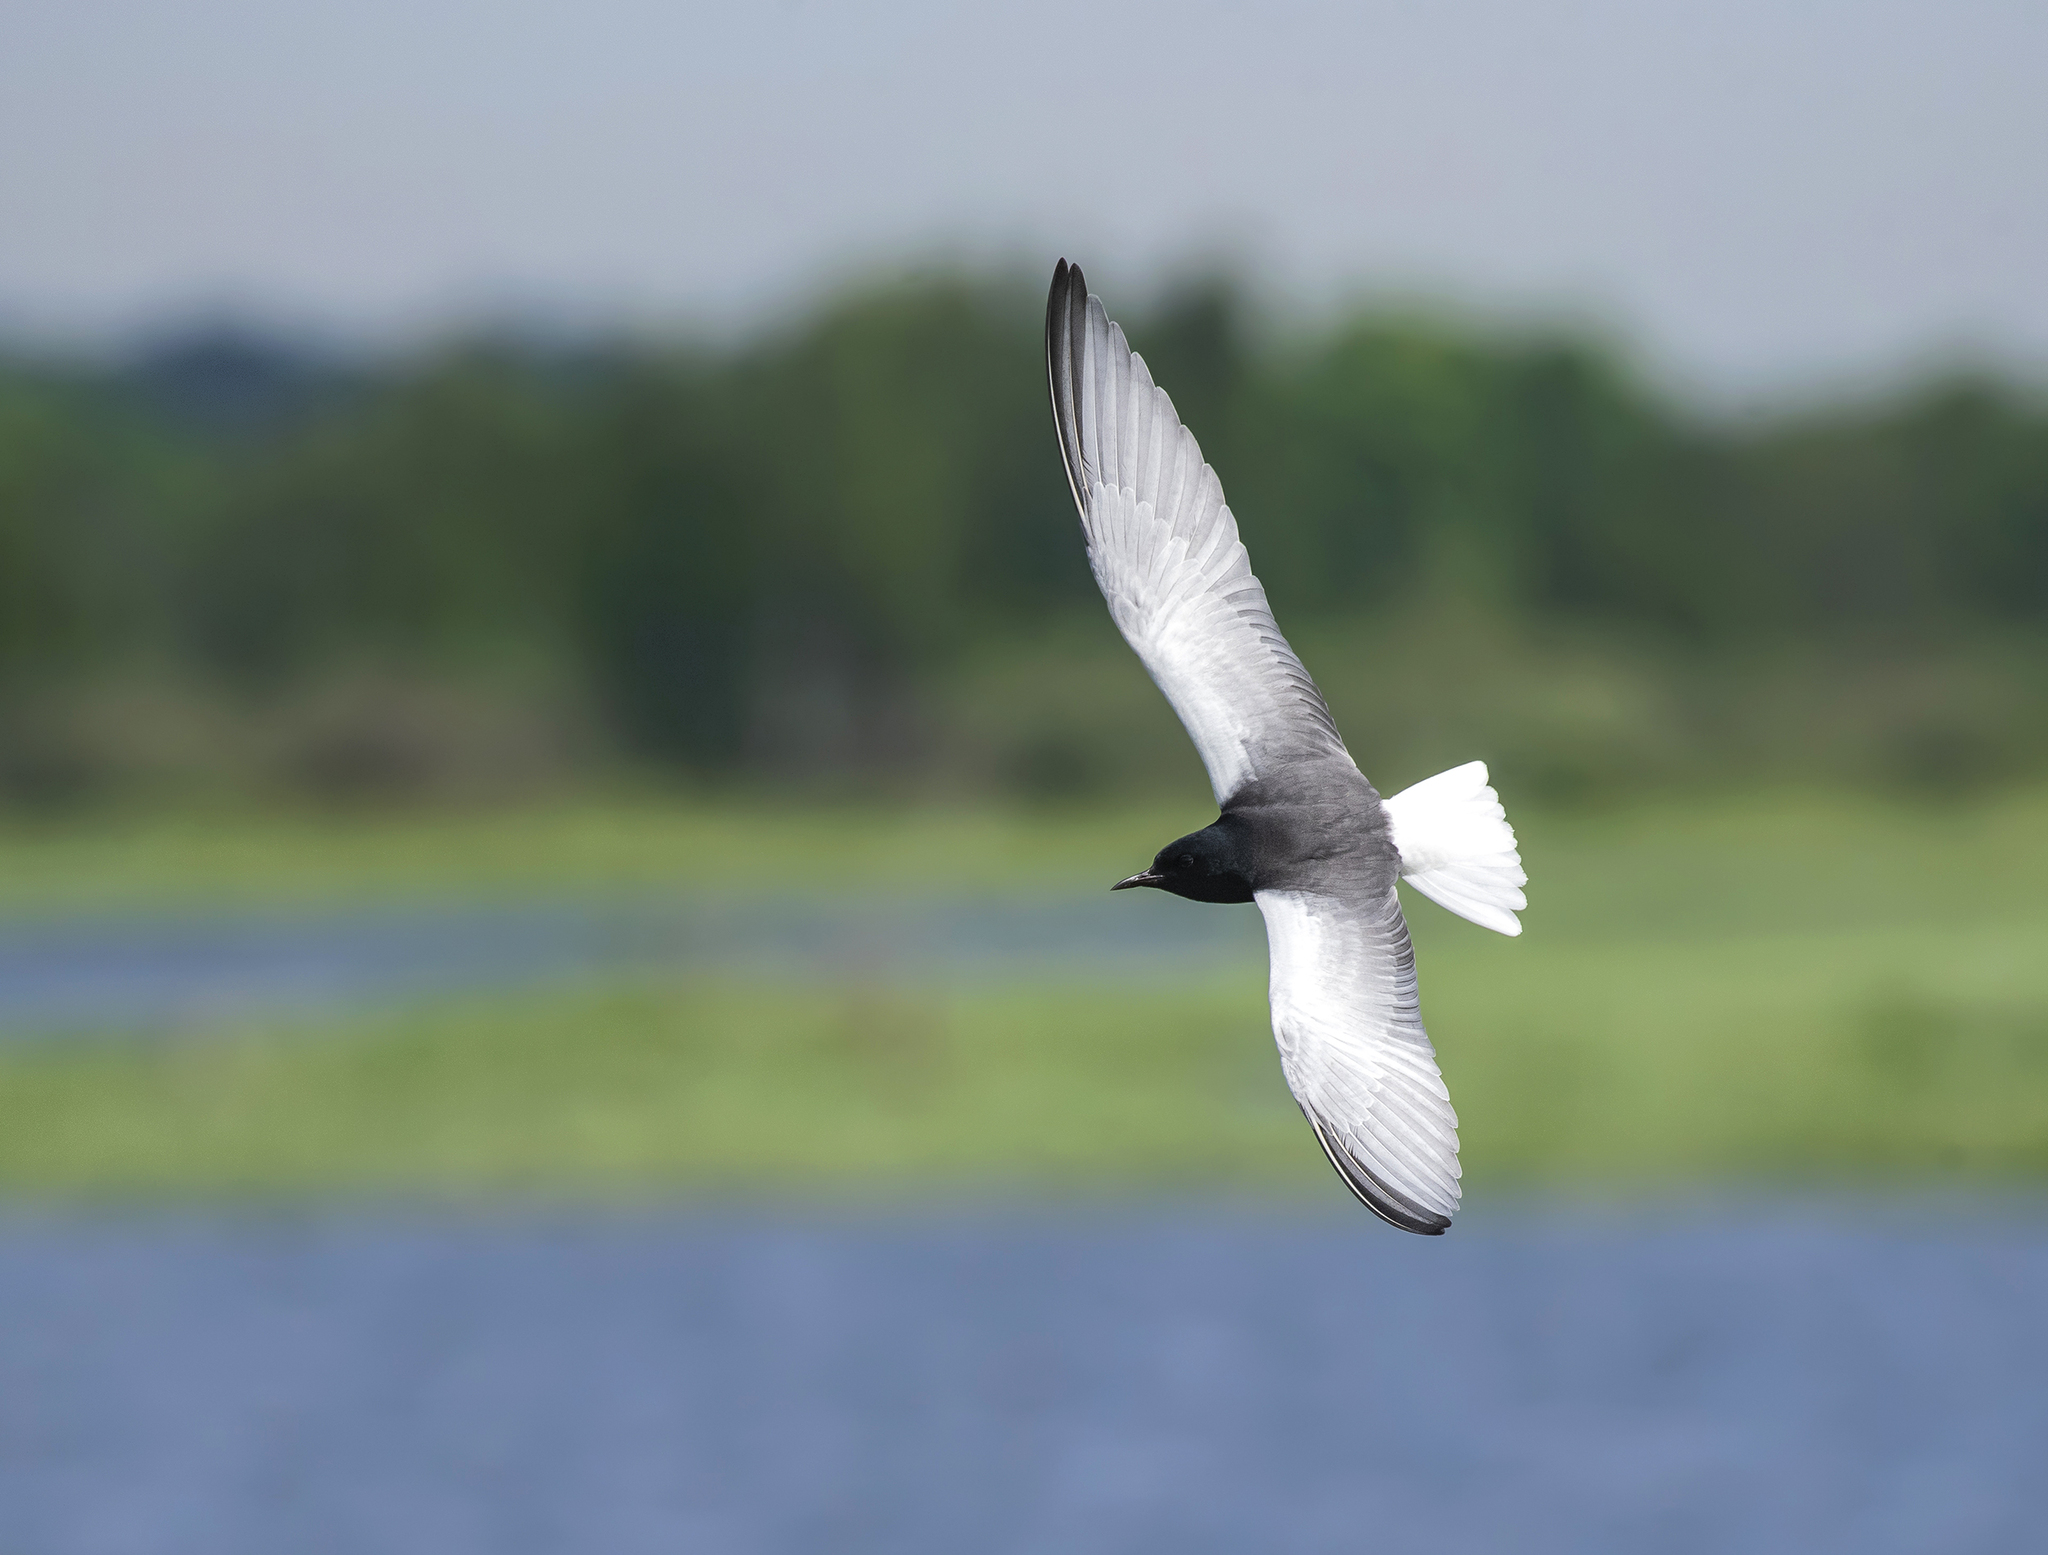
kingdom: Animalia
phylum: Chordata
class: Aves
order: Charadriiformes
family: Laridae
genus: Chlidonias
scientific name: Chlidonias leucopterus
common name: White-winged tern
